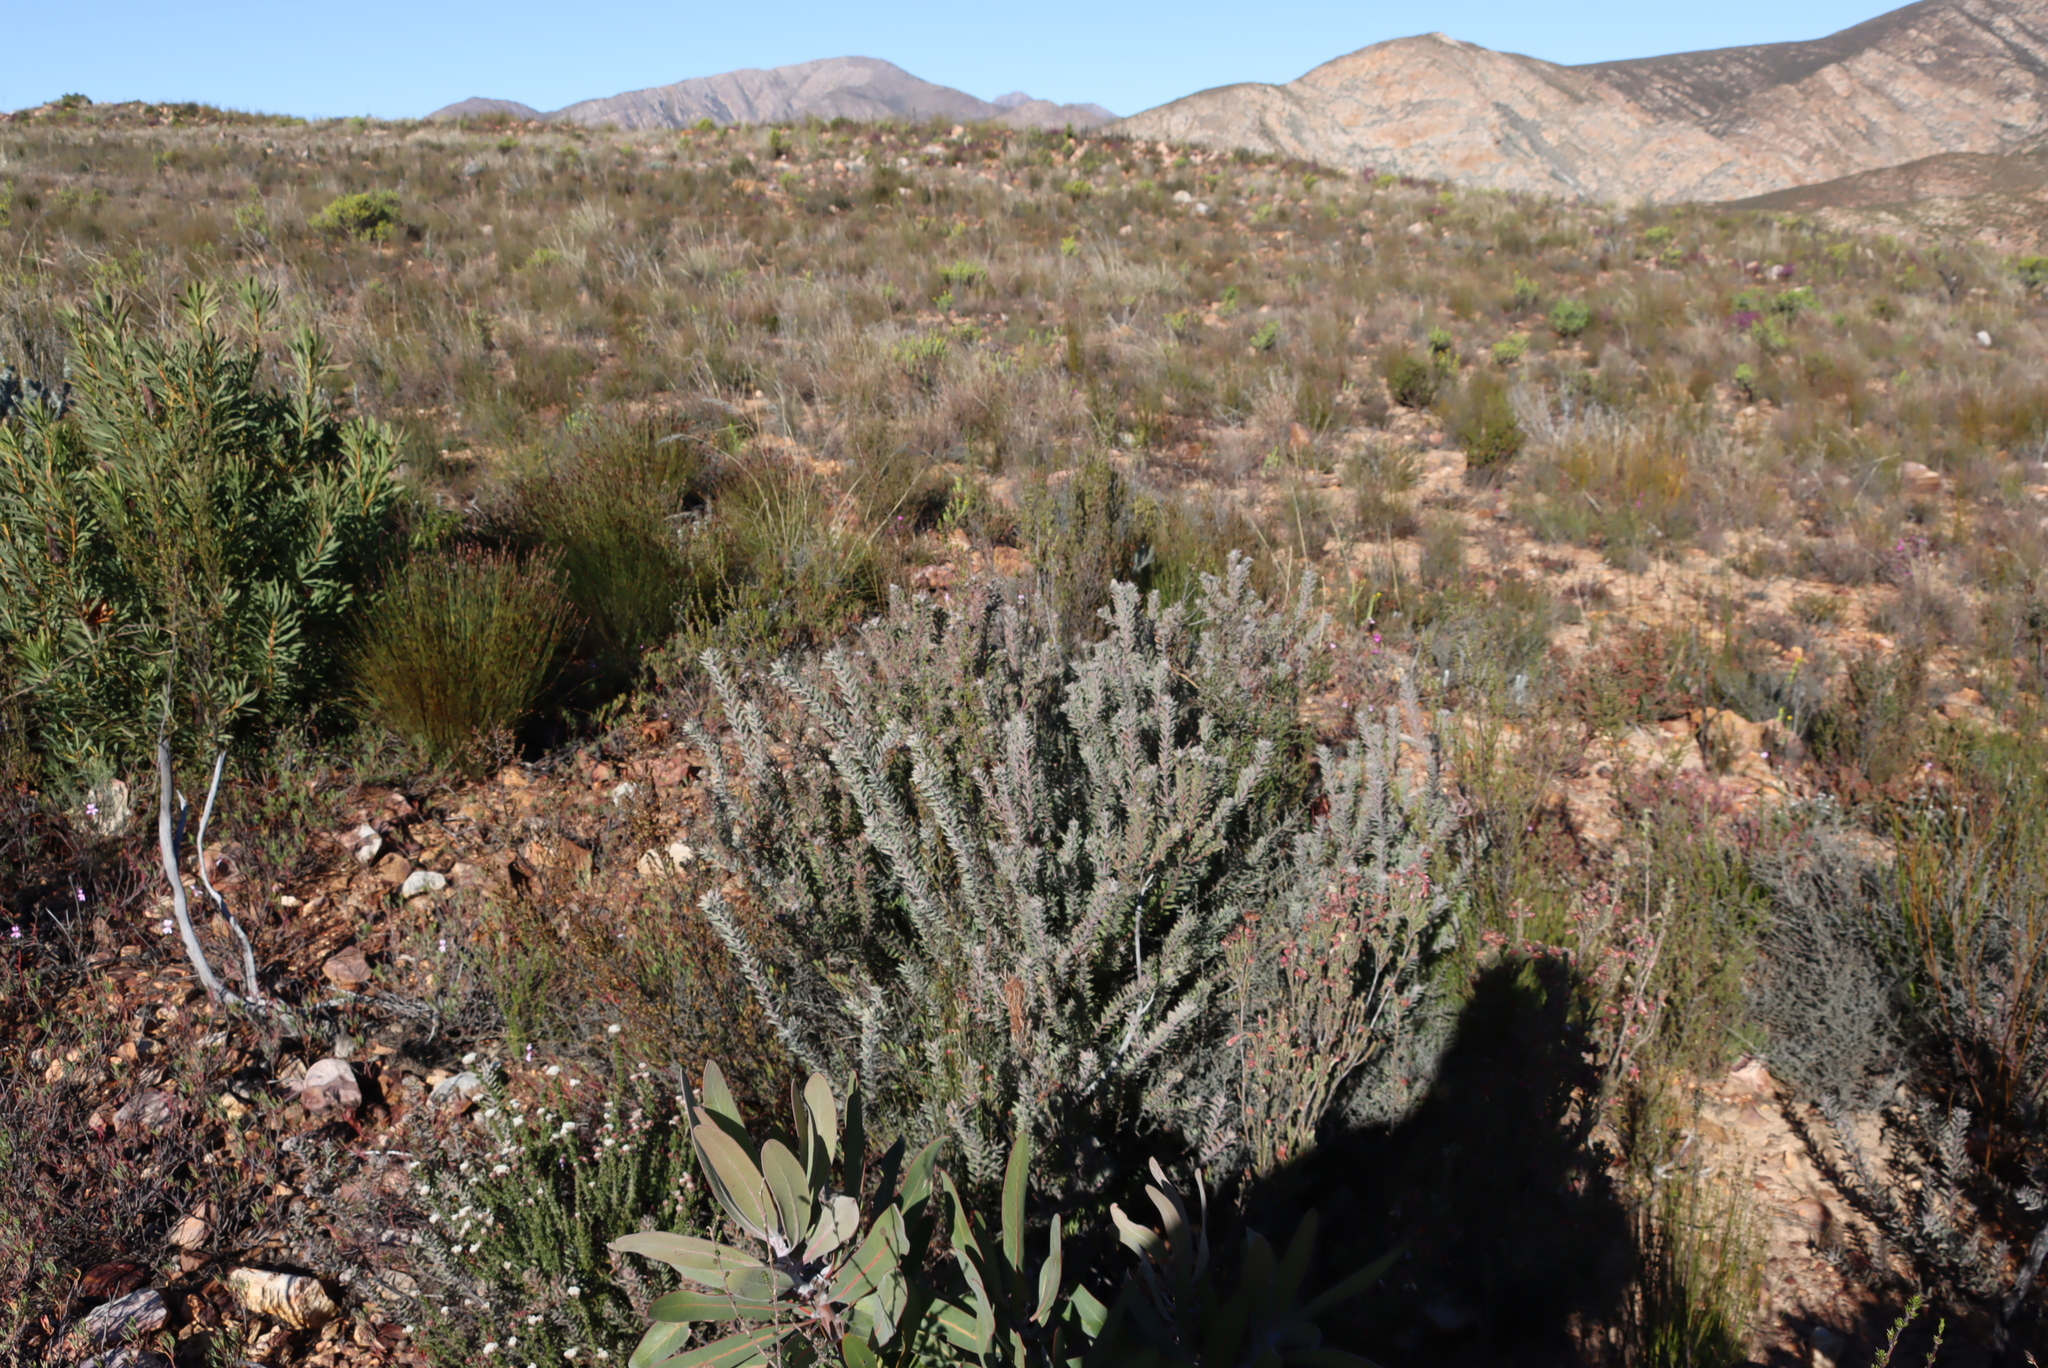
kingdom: Plantae
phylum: Tracheophyta
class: Magnoliopsida
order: Proteales
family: Proteaceae
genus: Leucospermum
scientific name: Leucospermum wittebergense
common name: Swartberg pincushion
